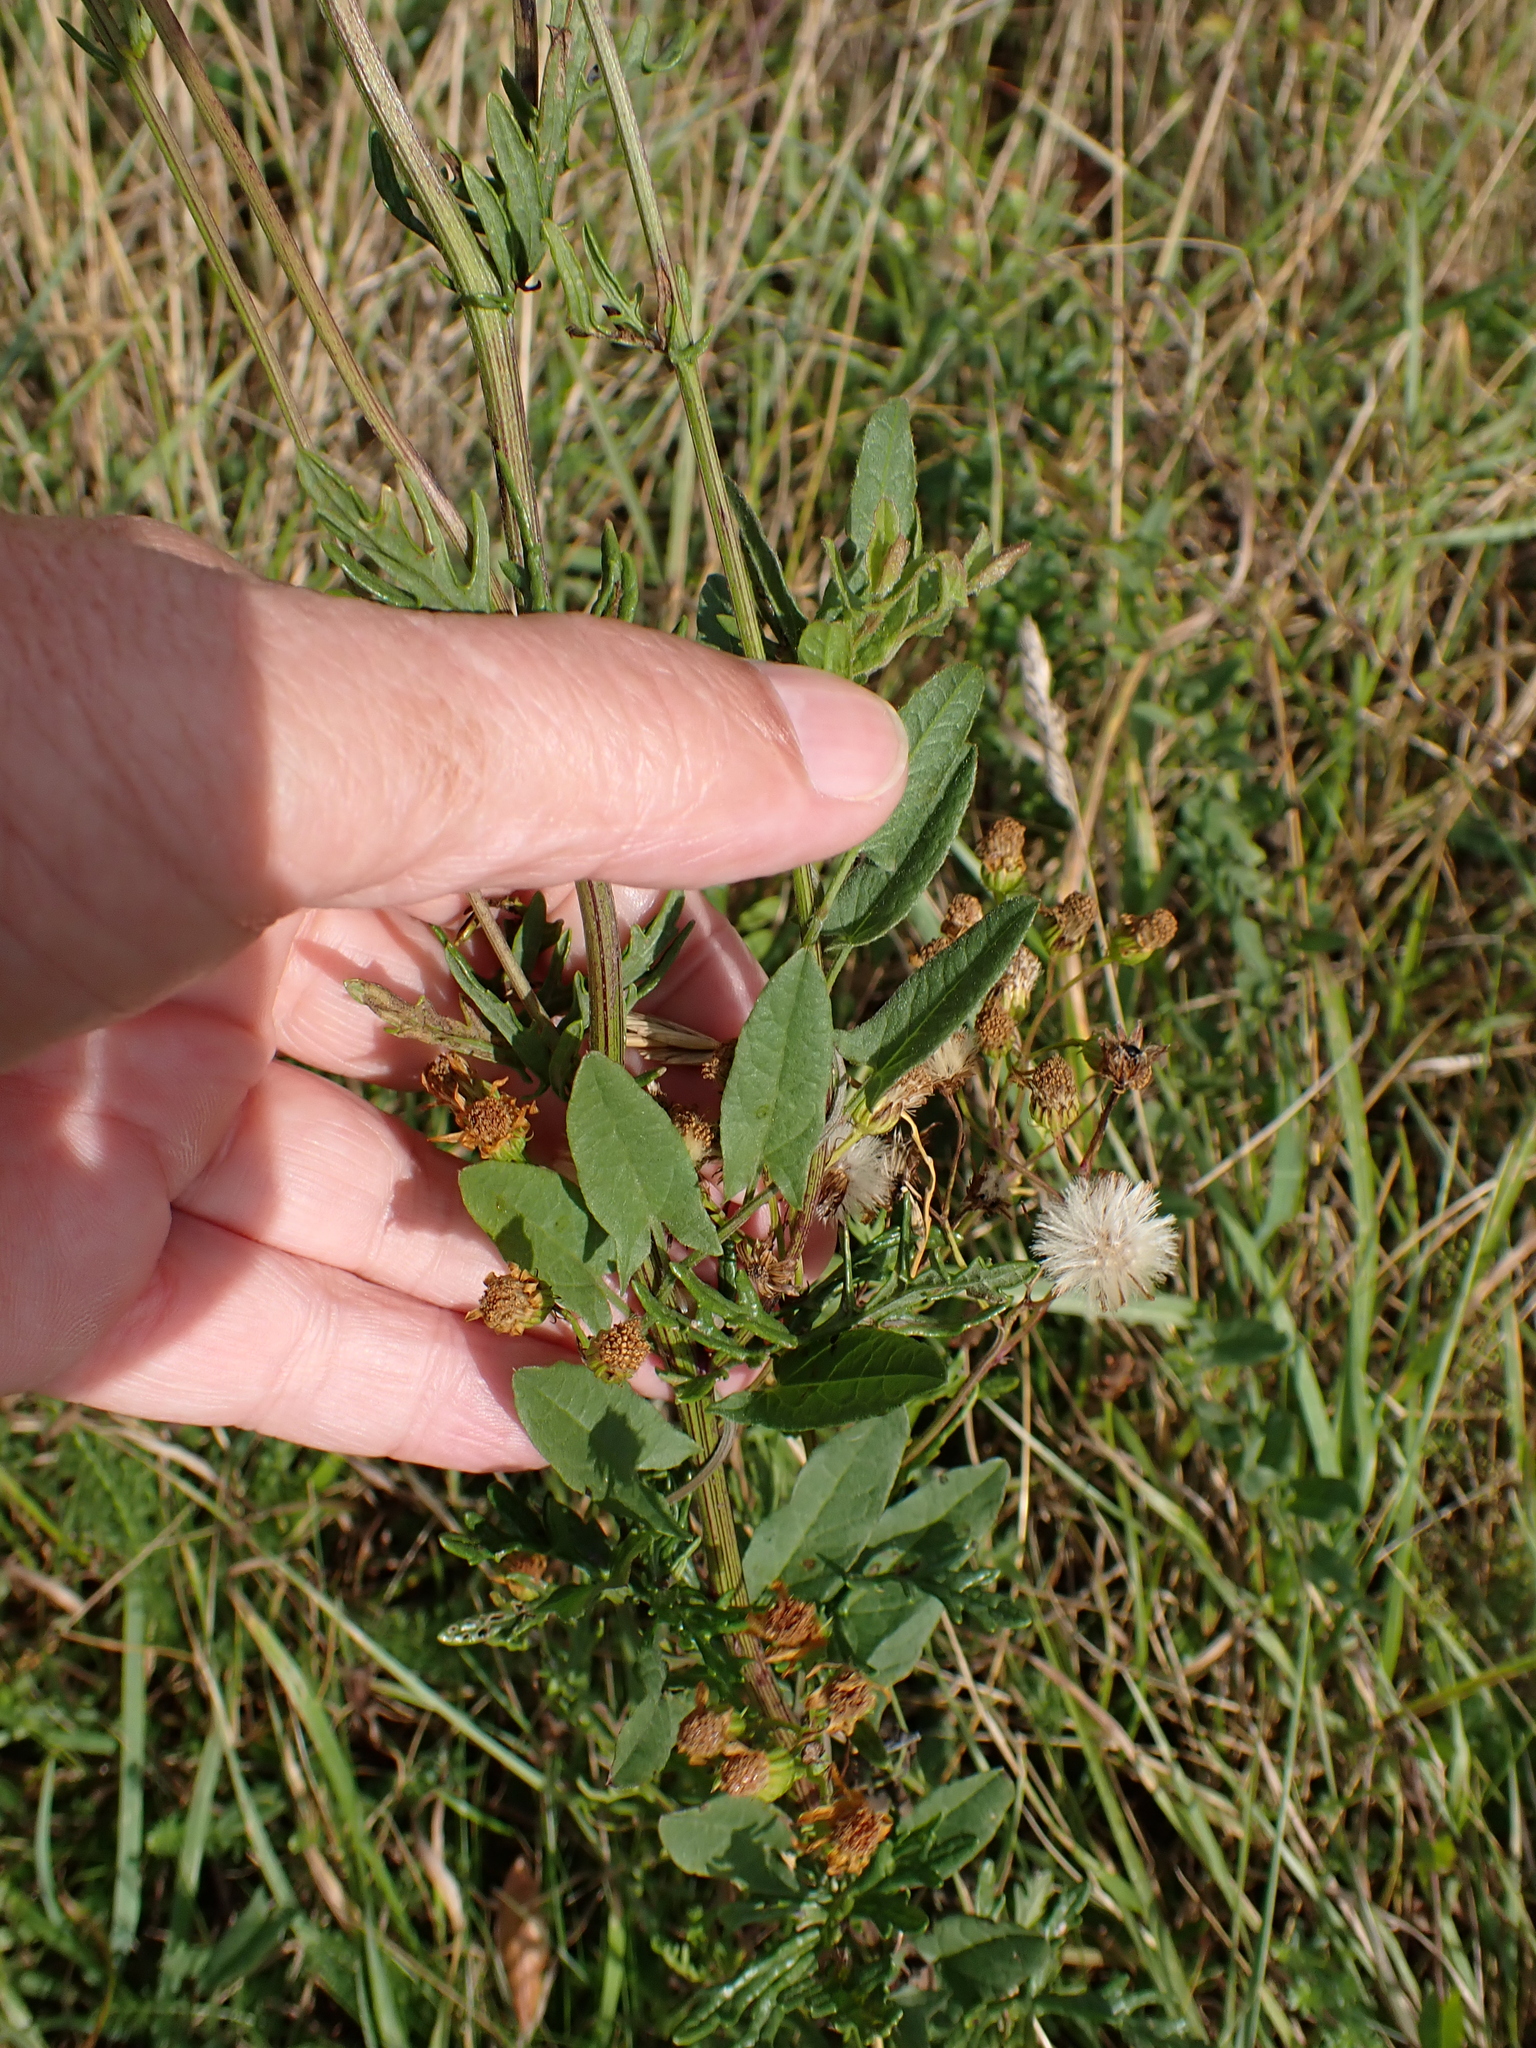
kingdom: Plantae
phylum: Tracheophyta
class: Magnoliopsida
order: Solanales
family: Convolvulaceae
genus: Convolvulus
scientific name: Convolvulus arvensis
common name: Field bindweed
